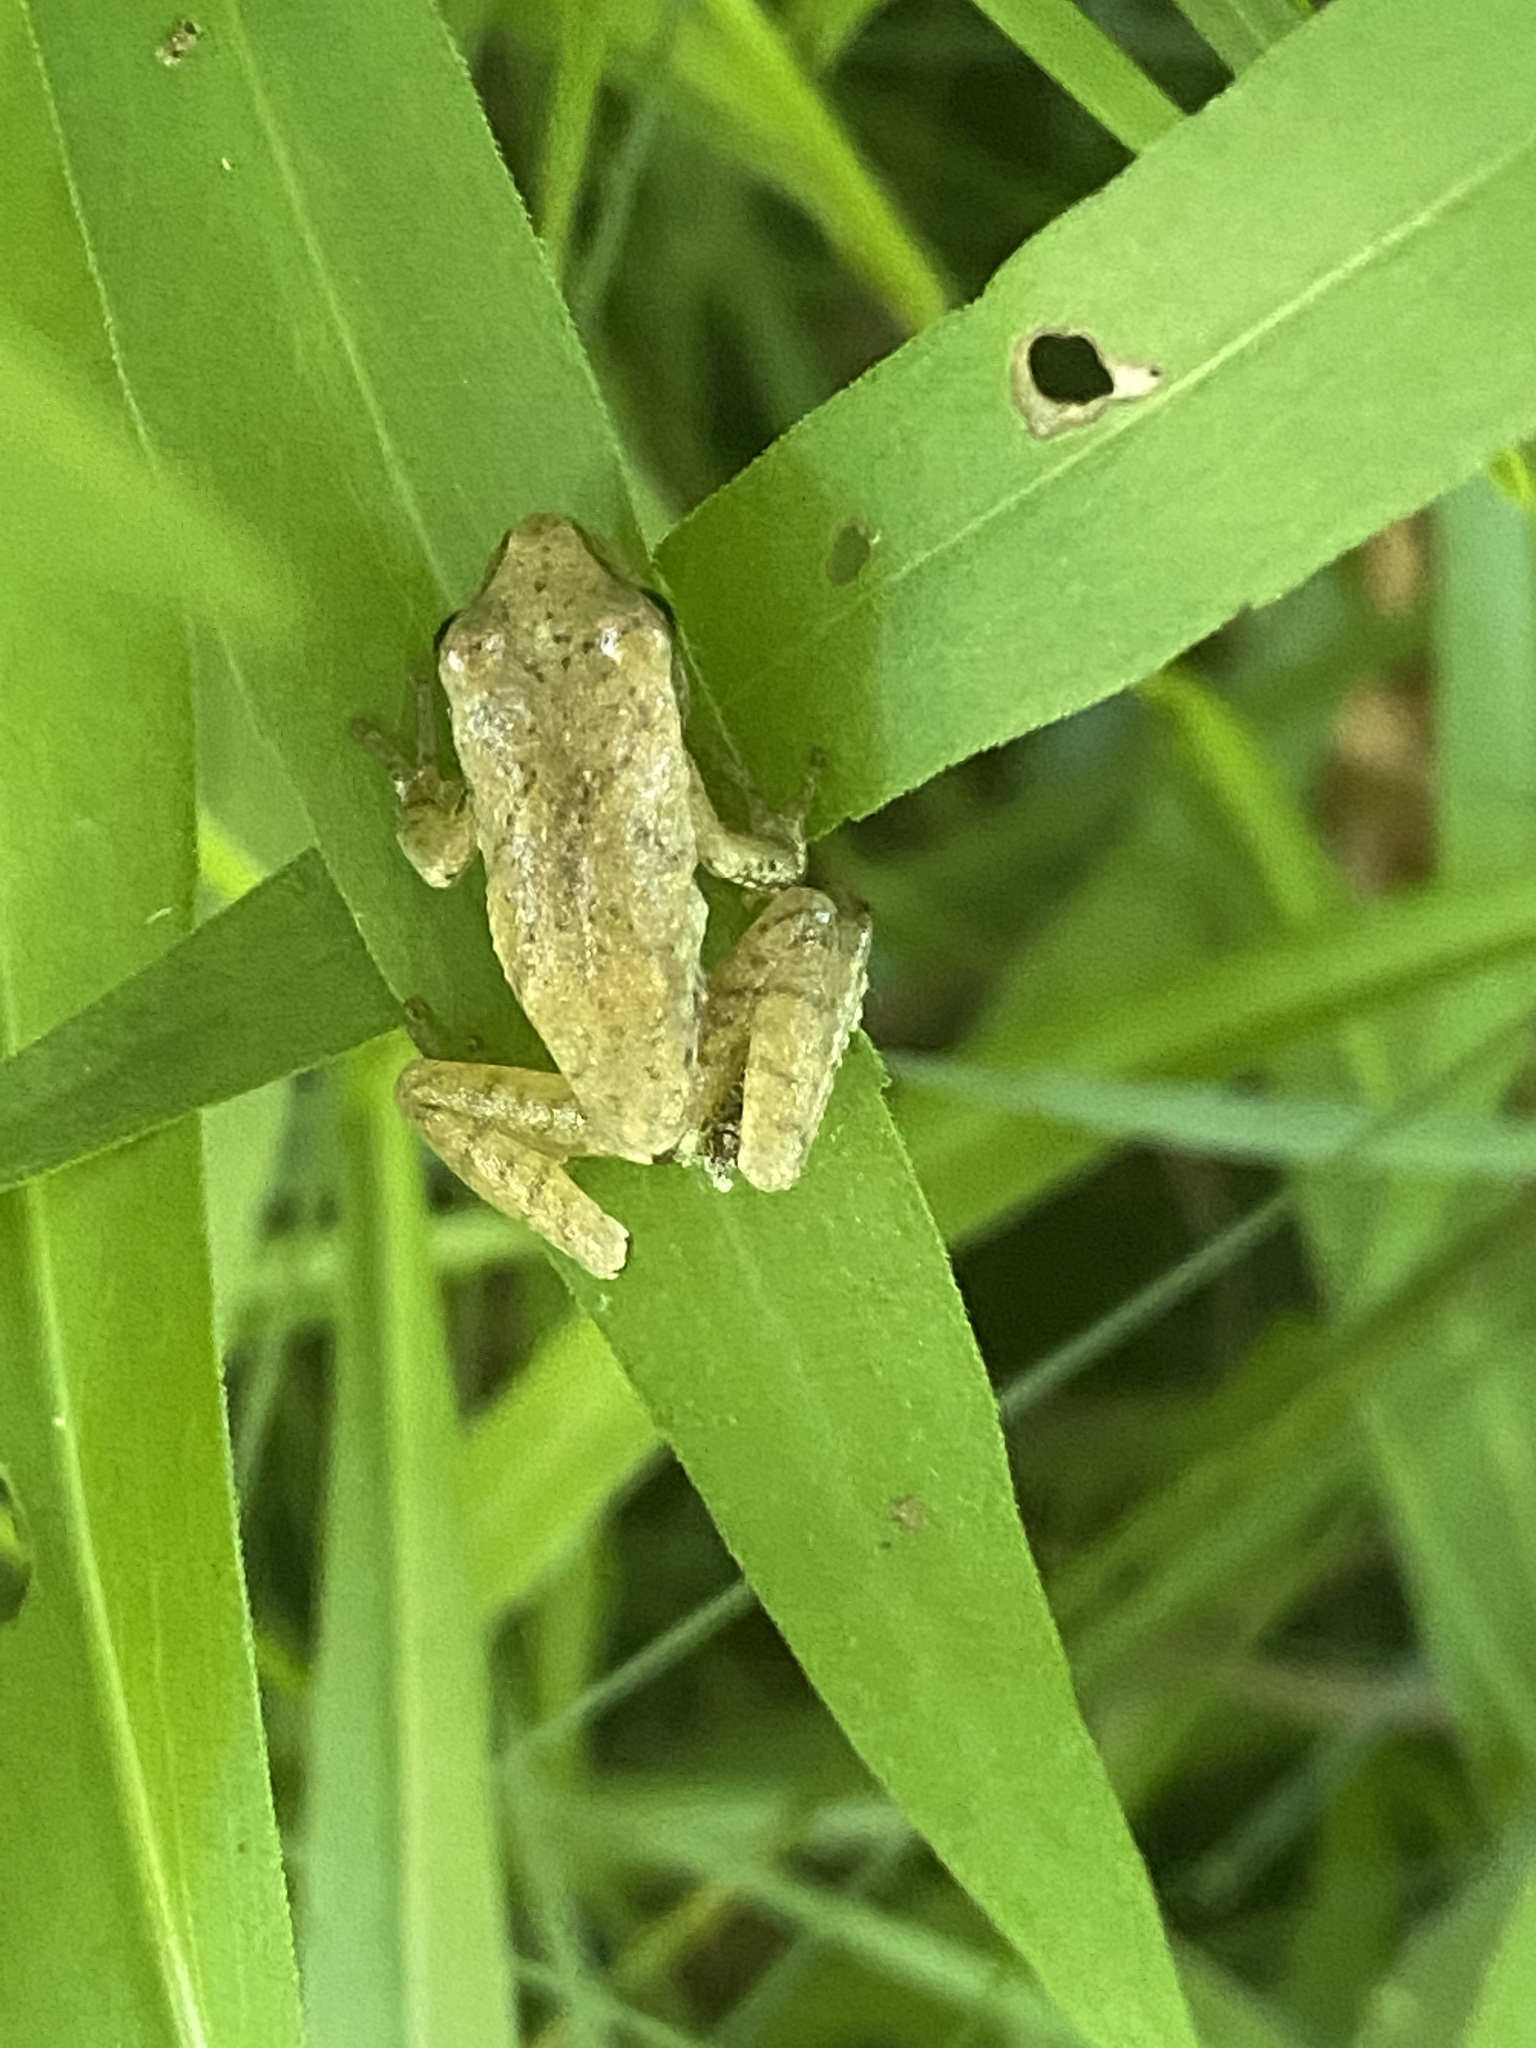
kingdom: Animalia
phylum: Chordata
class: Amphibia
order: Anura
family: Hylidae
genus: Pseudacris
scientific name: Pseudacris crucifer
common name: Spring peeper
